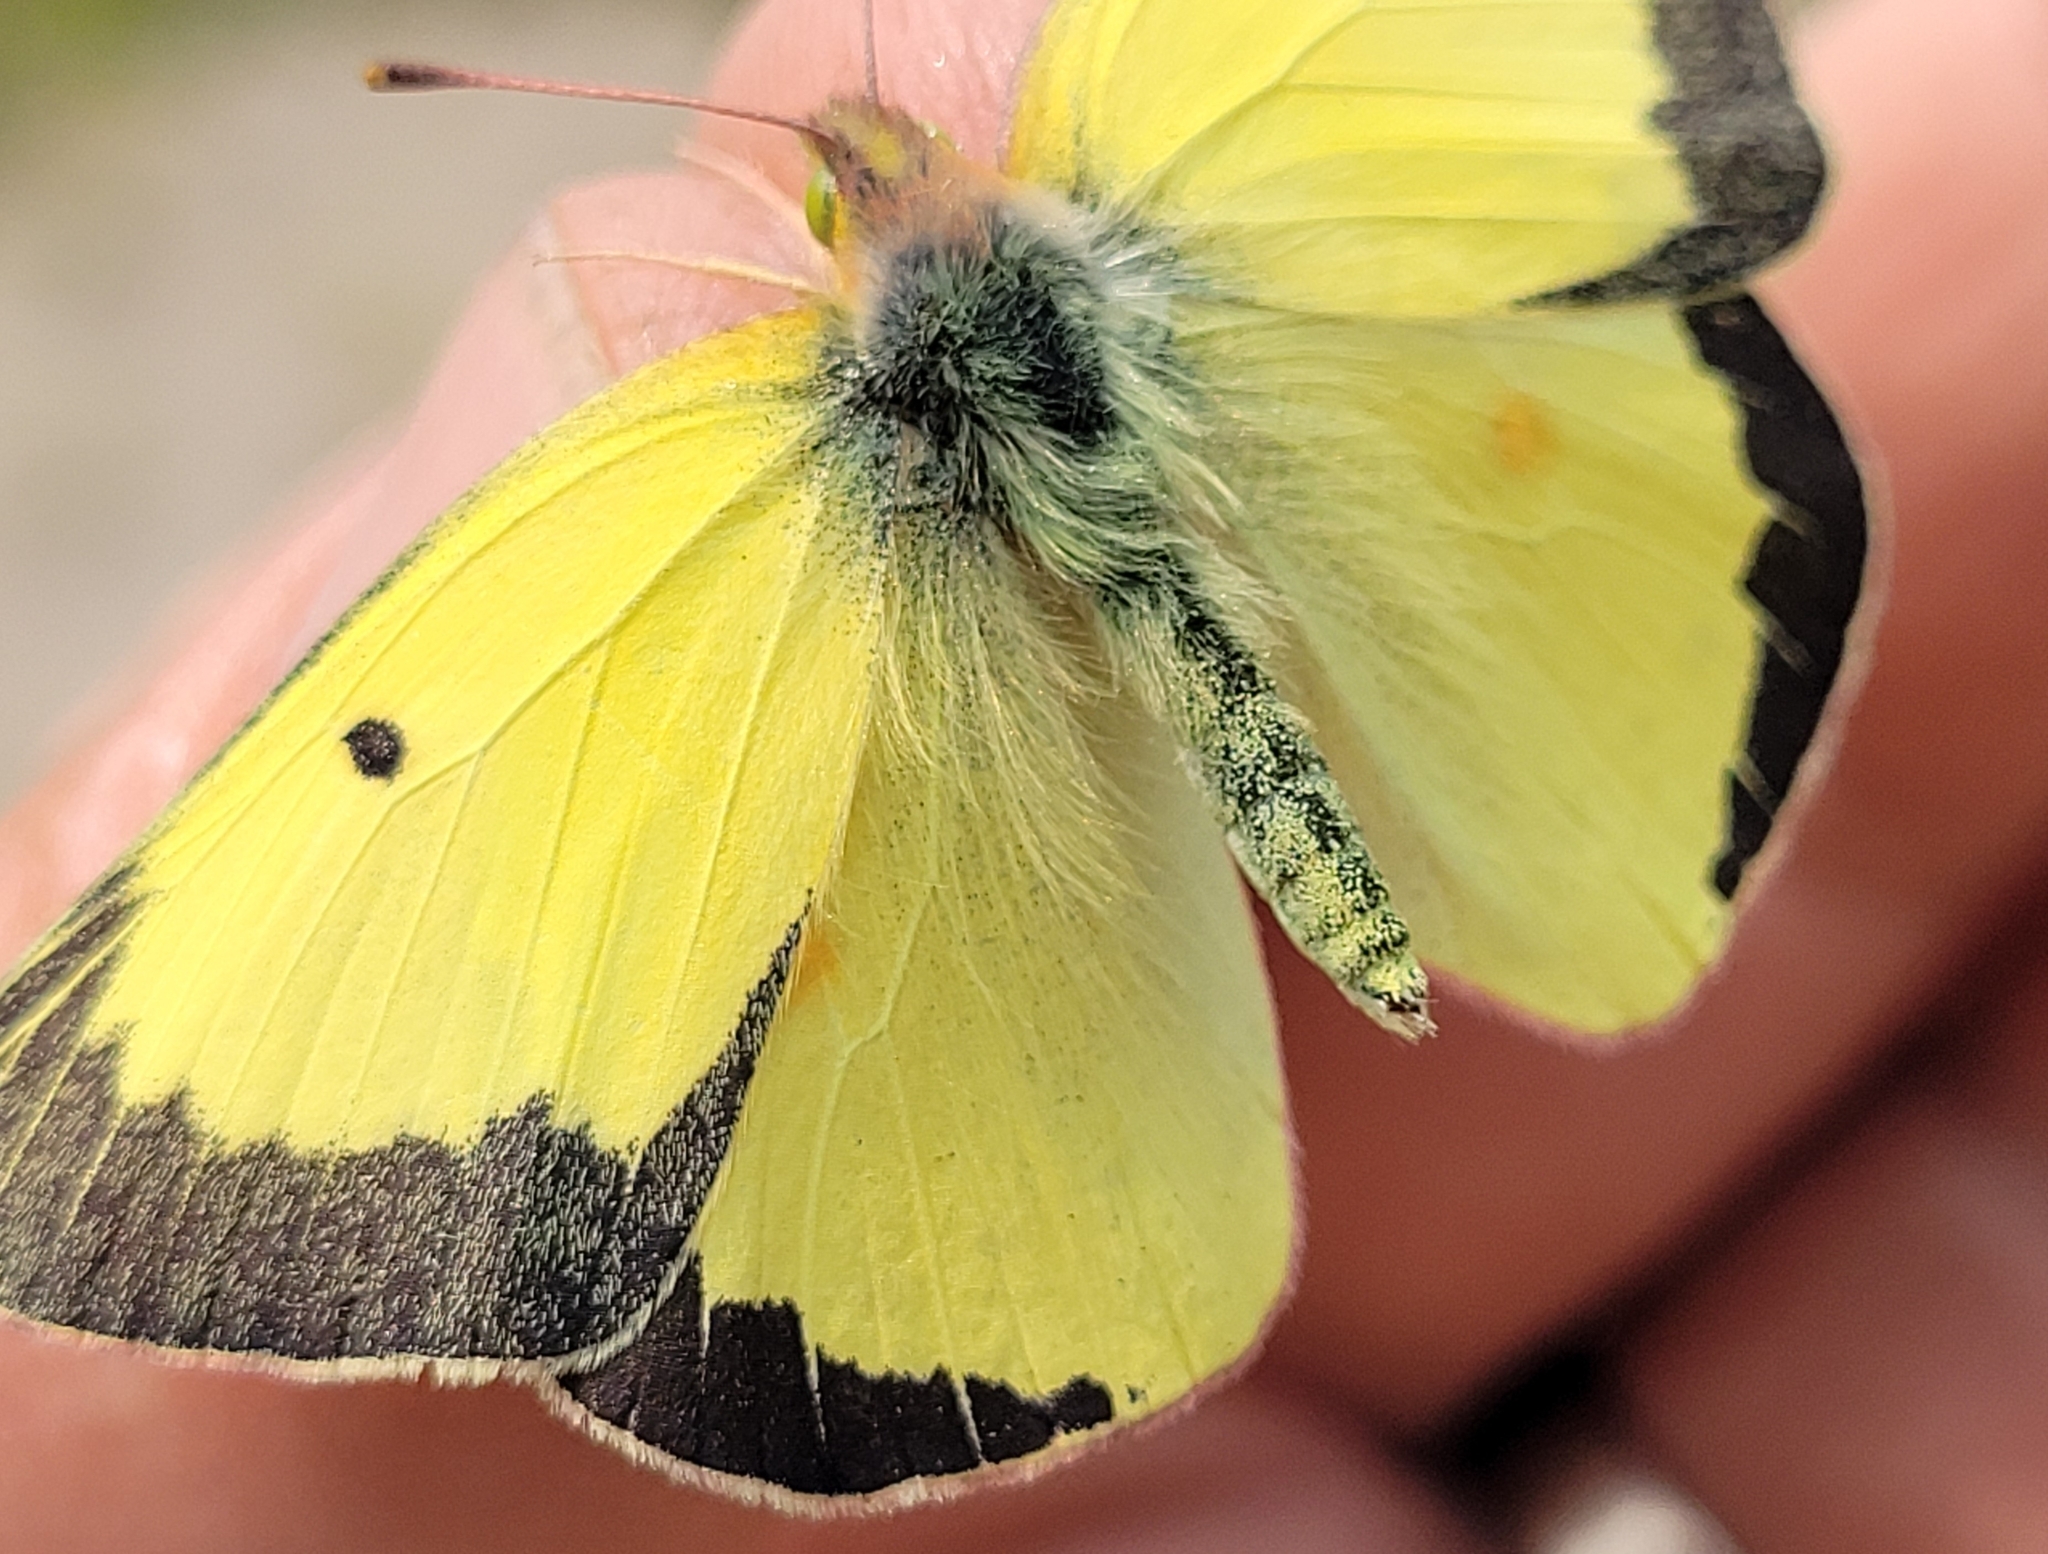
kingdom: Animalia
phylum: Arthropoda
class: Insecta
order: Lepidoptera
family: Pieridae
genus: Colias
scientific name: Colias philodice
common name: Clouded sulphur
